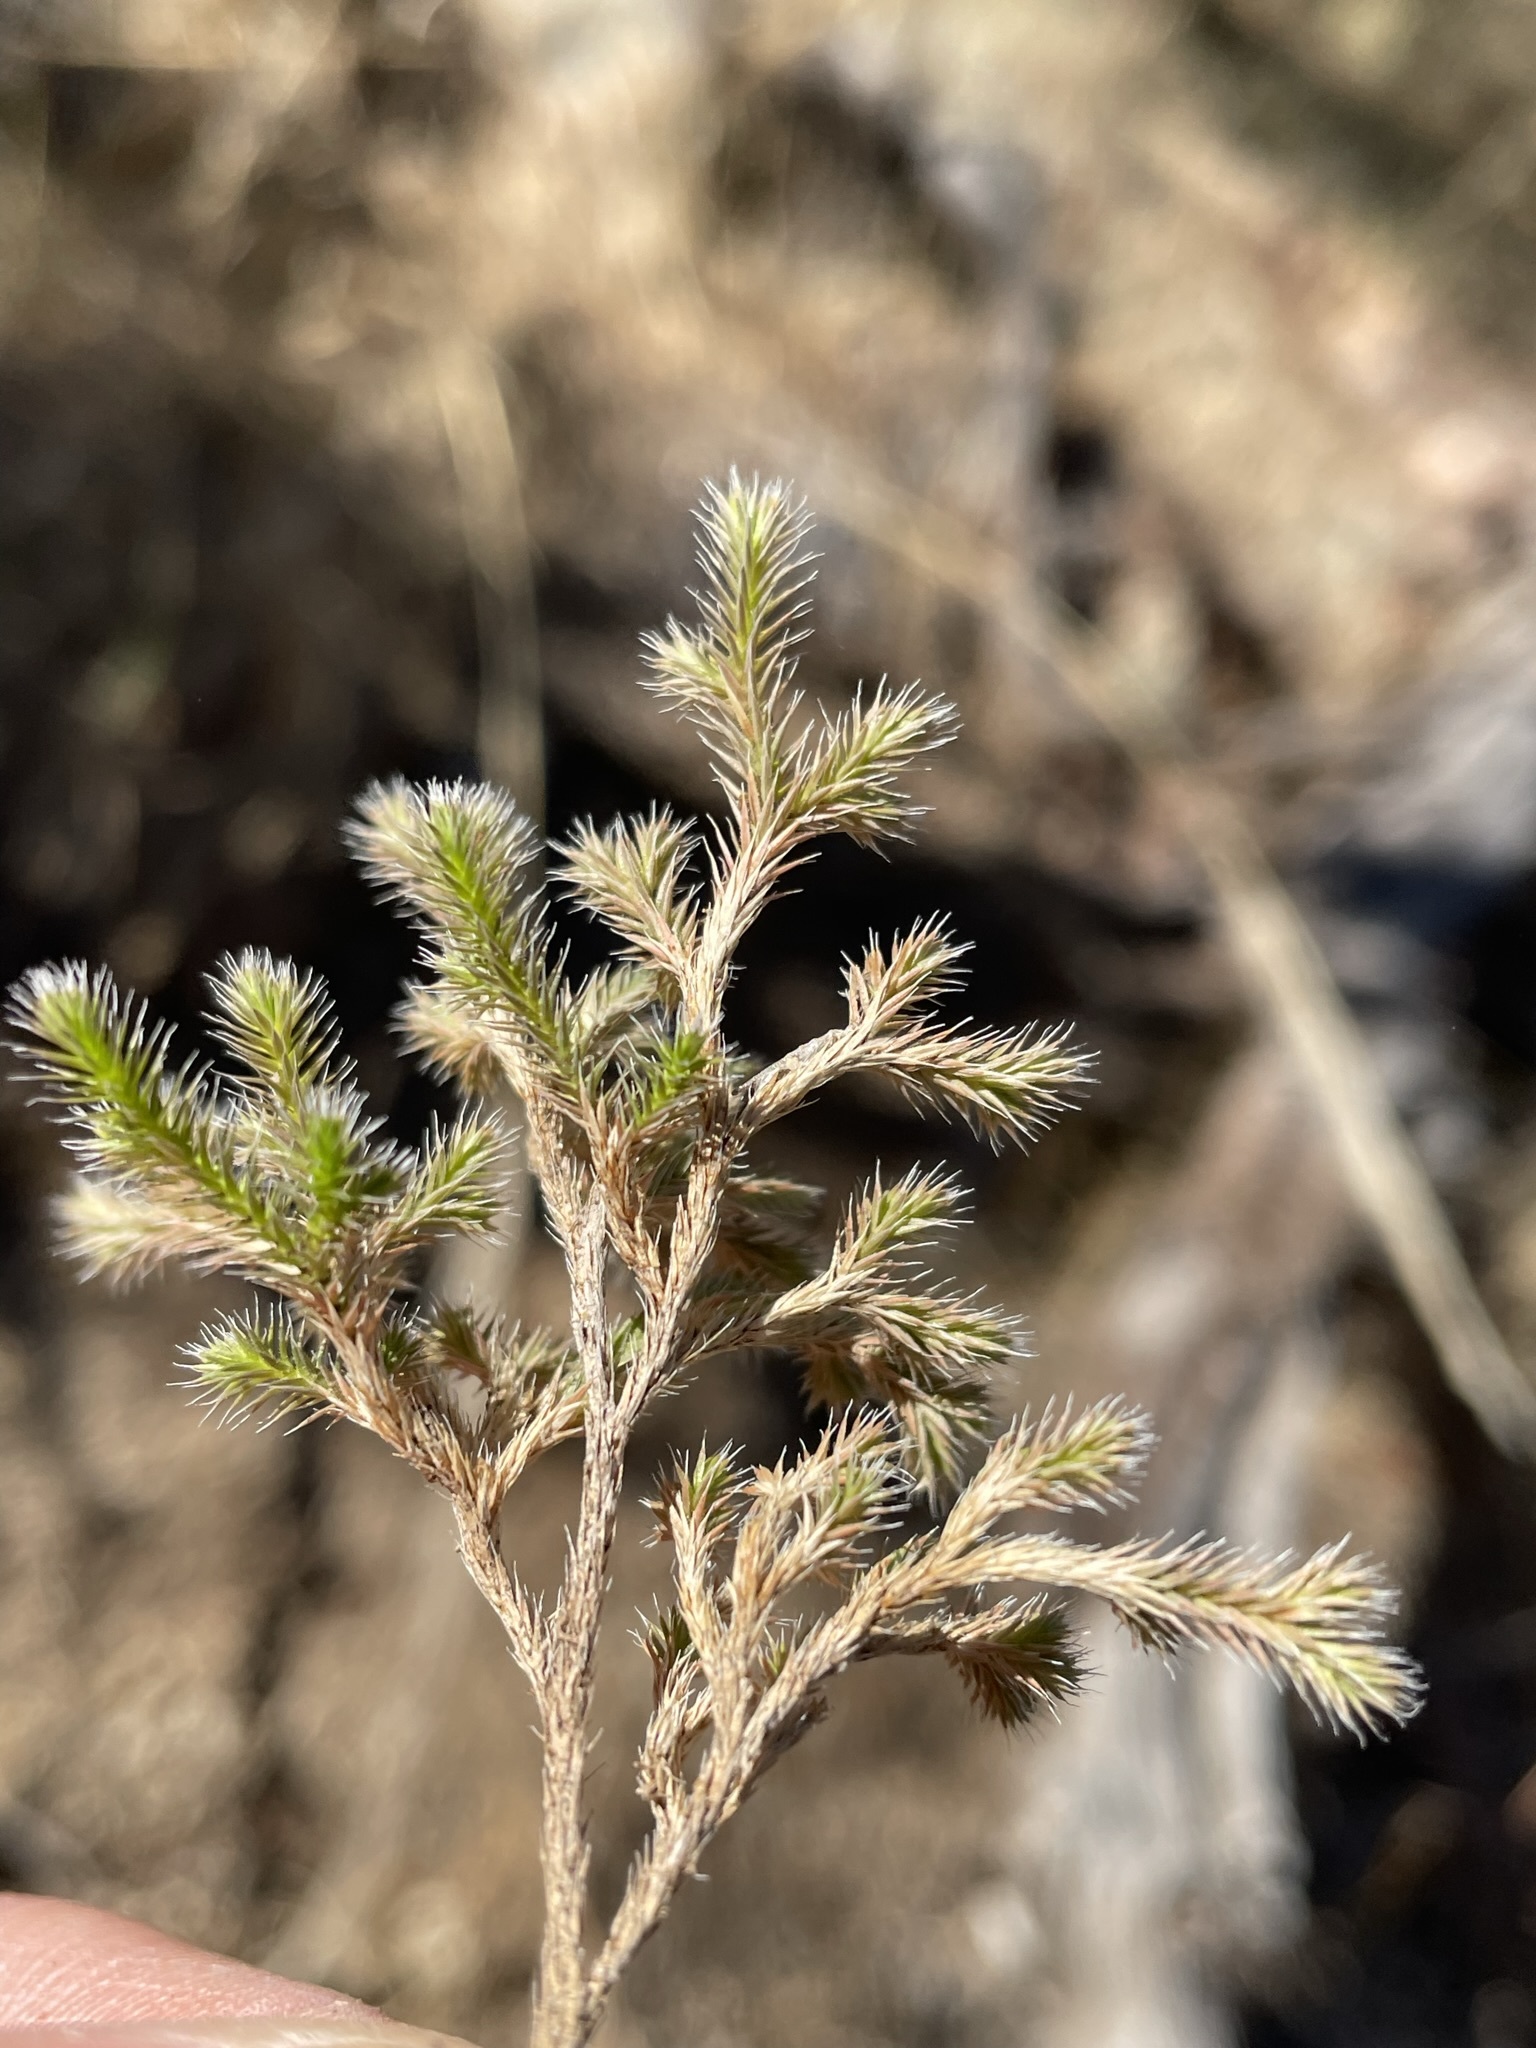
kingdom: Plantae
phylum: Tracheophyta
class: Lycopodiopsida
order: Selaginellales
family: Selaginellaceae
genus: Selaginella
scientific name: Selaginella rupincola
